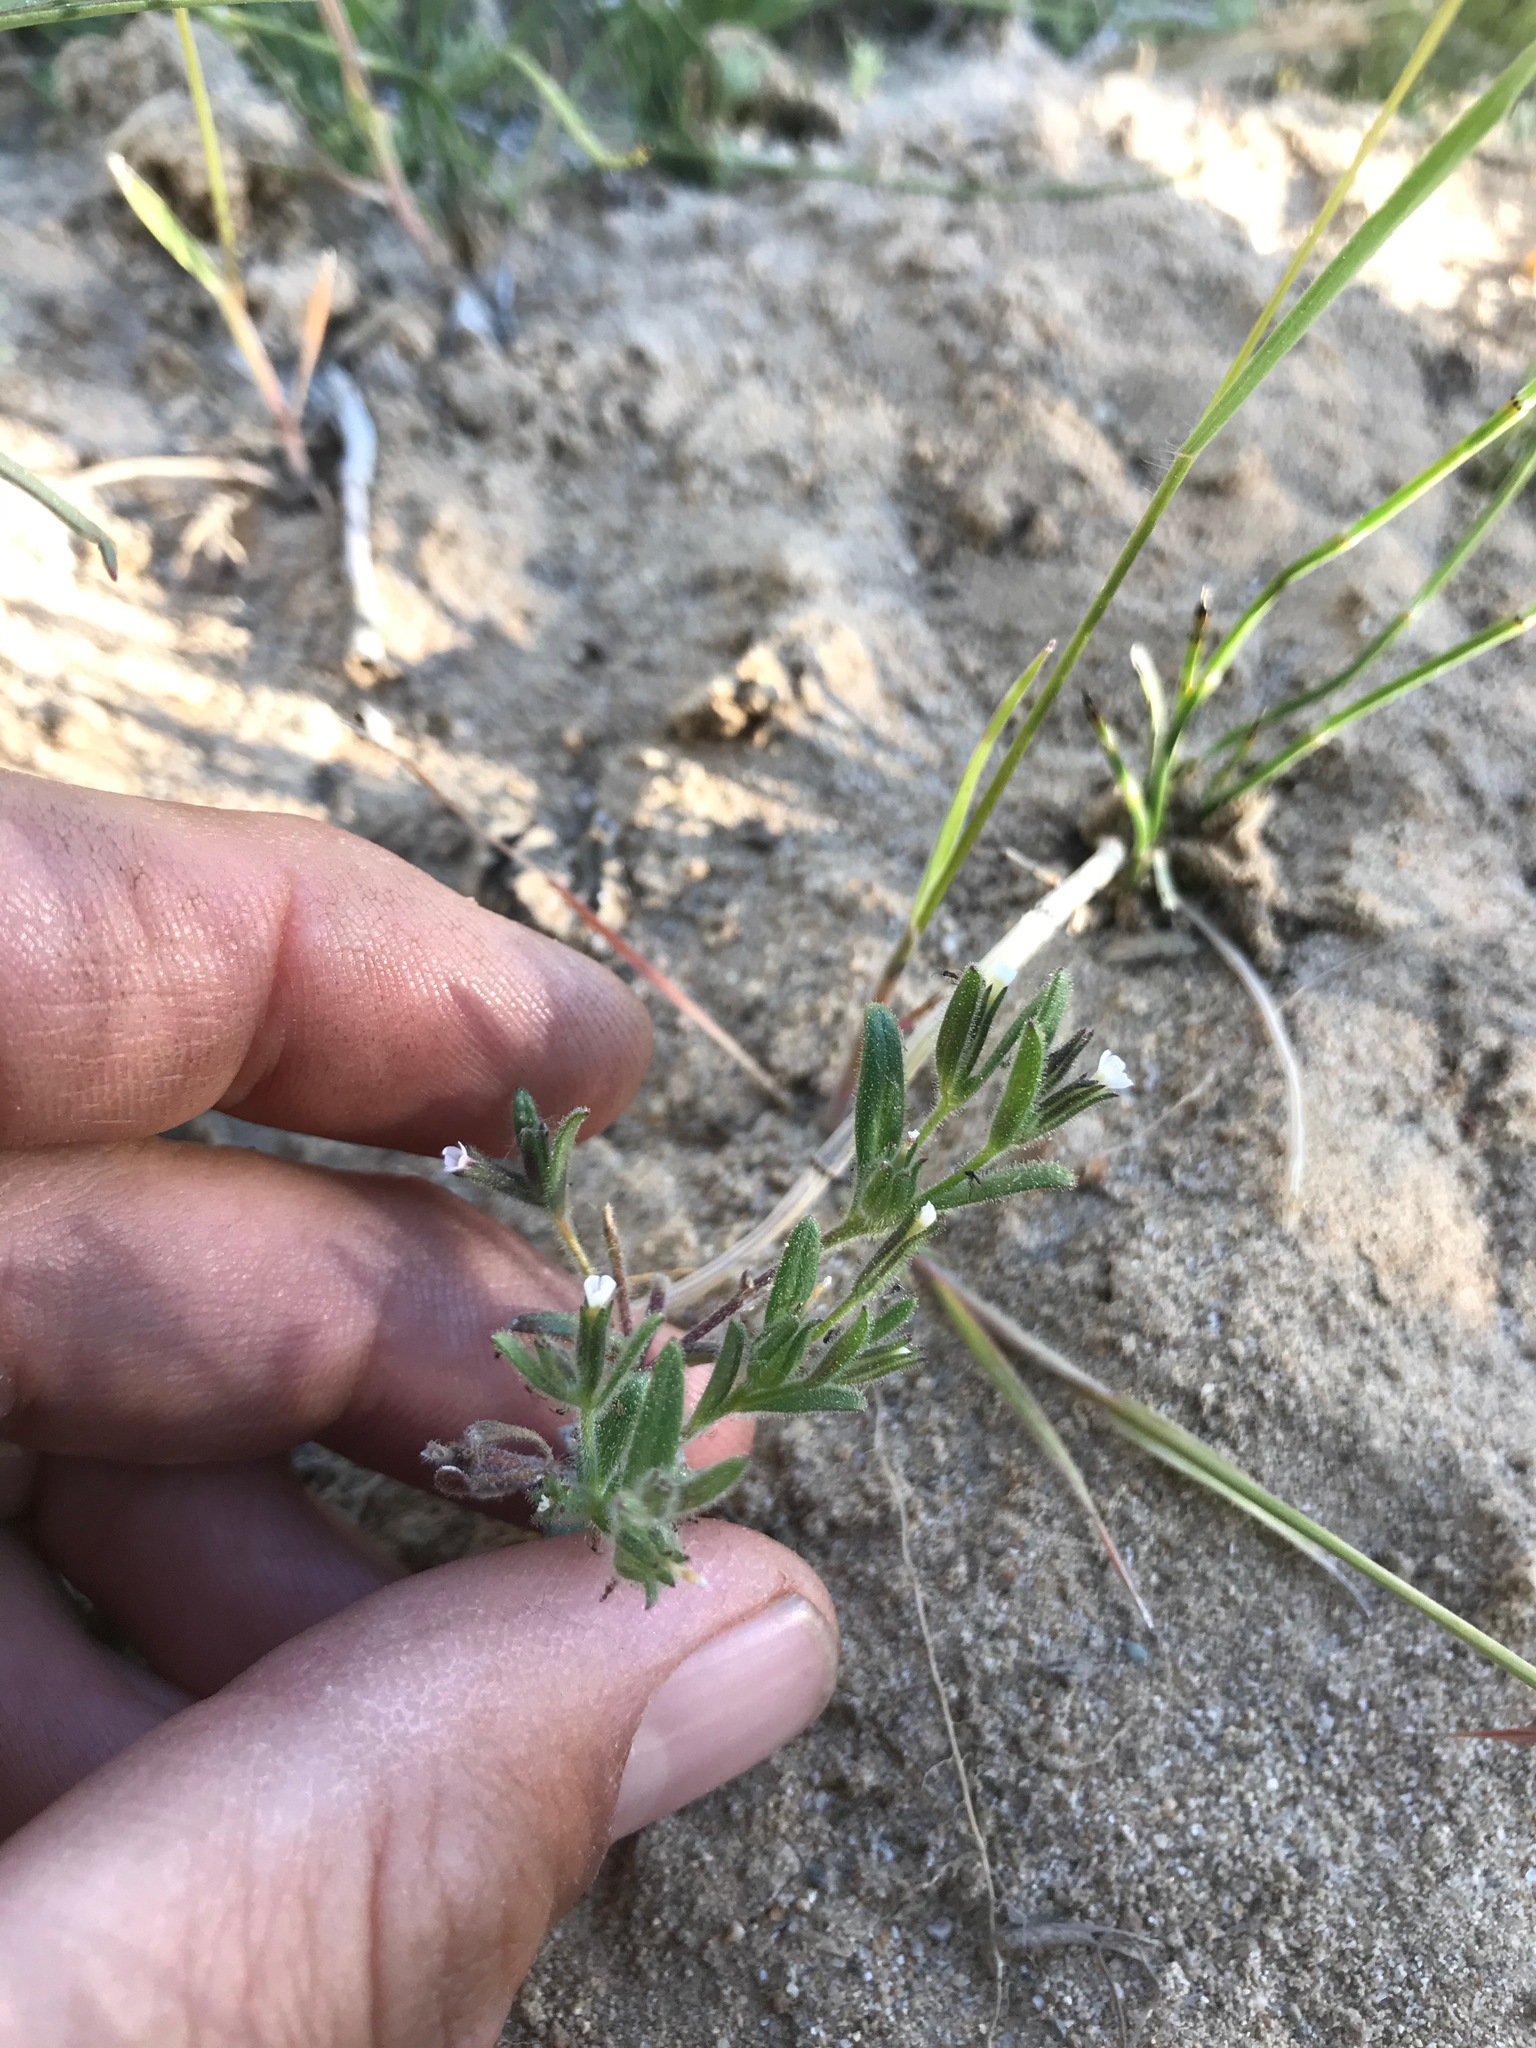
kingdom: Plantae
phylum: Tracheophyta
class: Magnoliopsida
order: Ericales
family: Polemoniaceae
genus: Phlox
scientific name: Phlox gracilis
